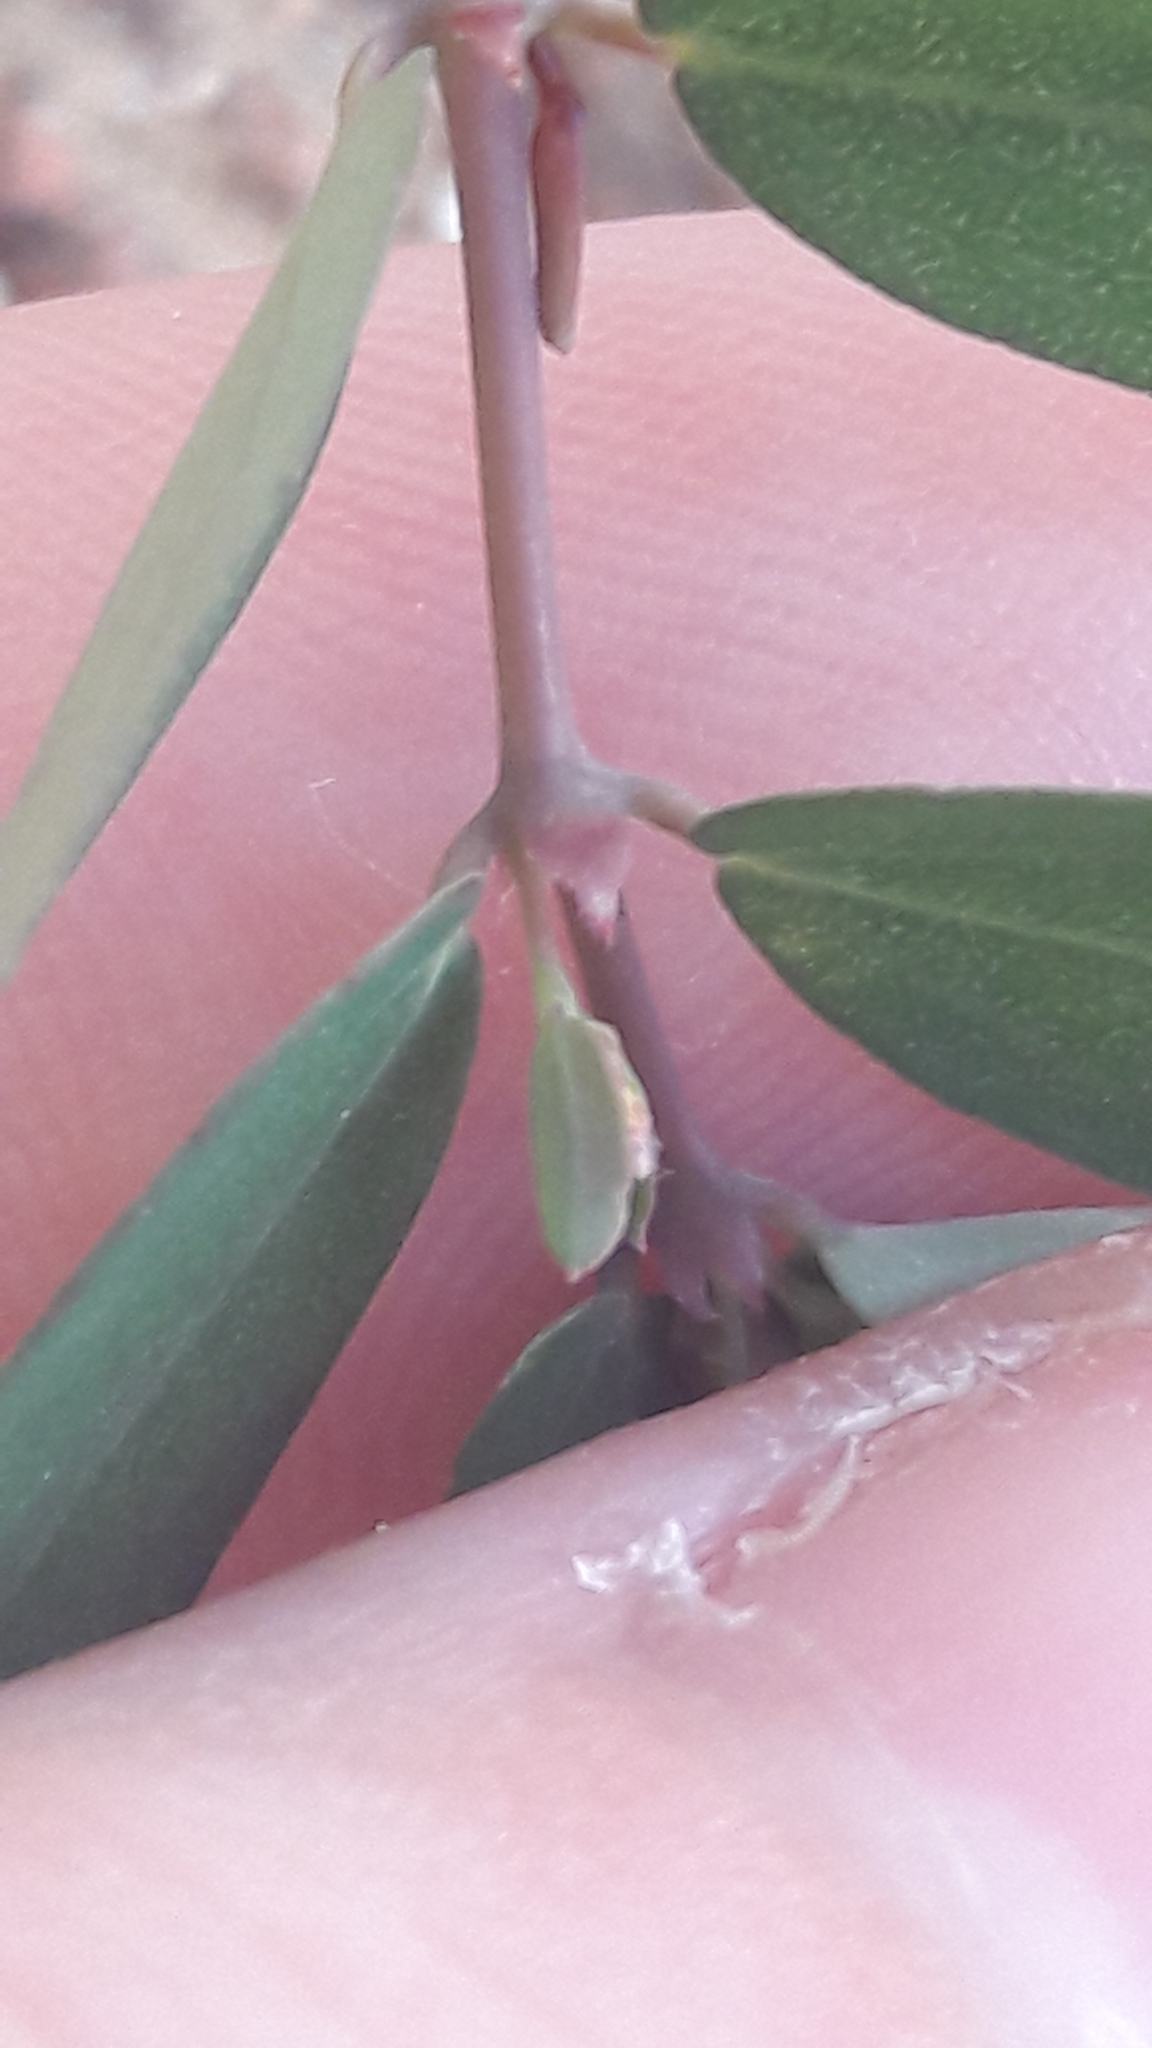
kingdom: Plantae
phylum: Tracheophyta
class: Magnoliopsida
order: Malpighiales
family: Euphorbiaceae
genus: Euphorbia
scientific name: Euphorbia hypericifolia
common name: Graceful sandmat
